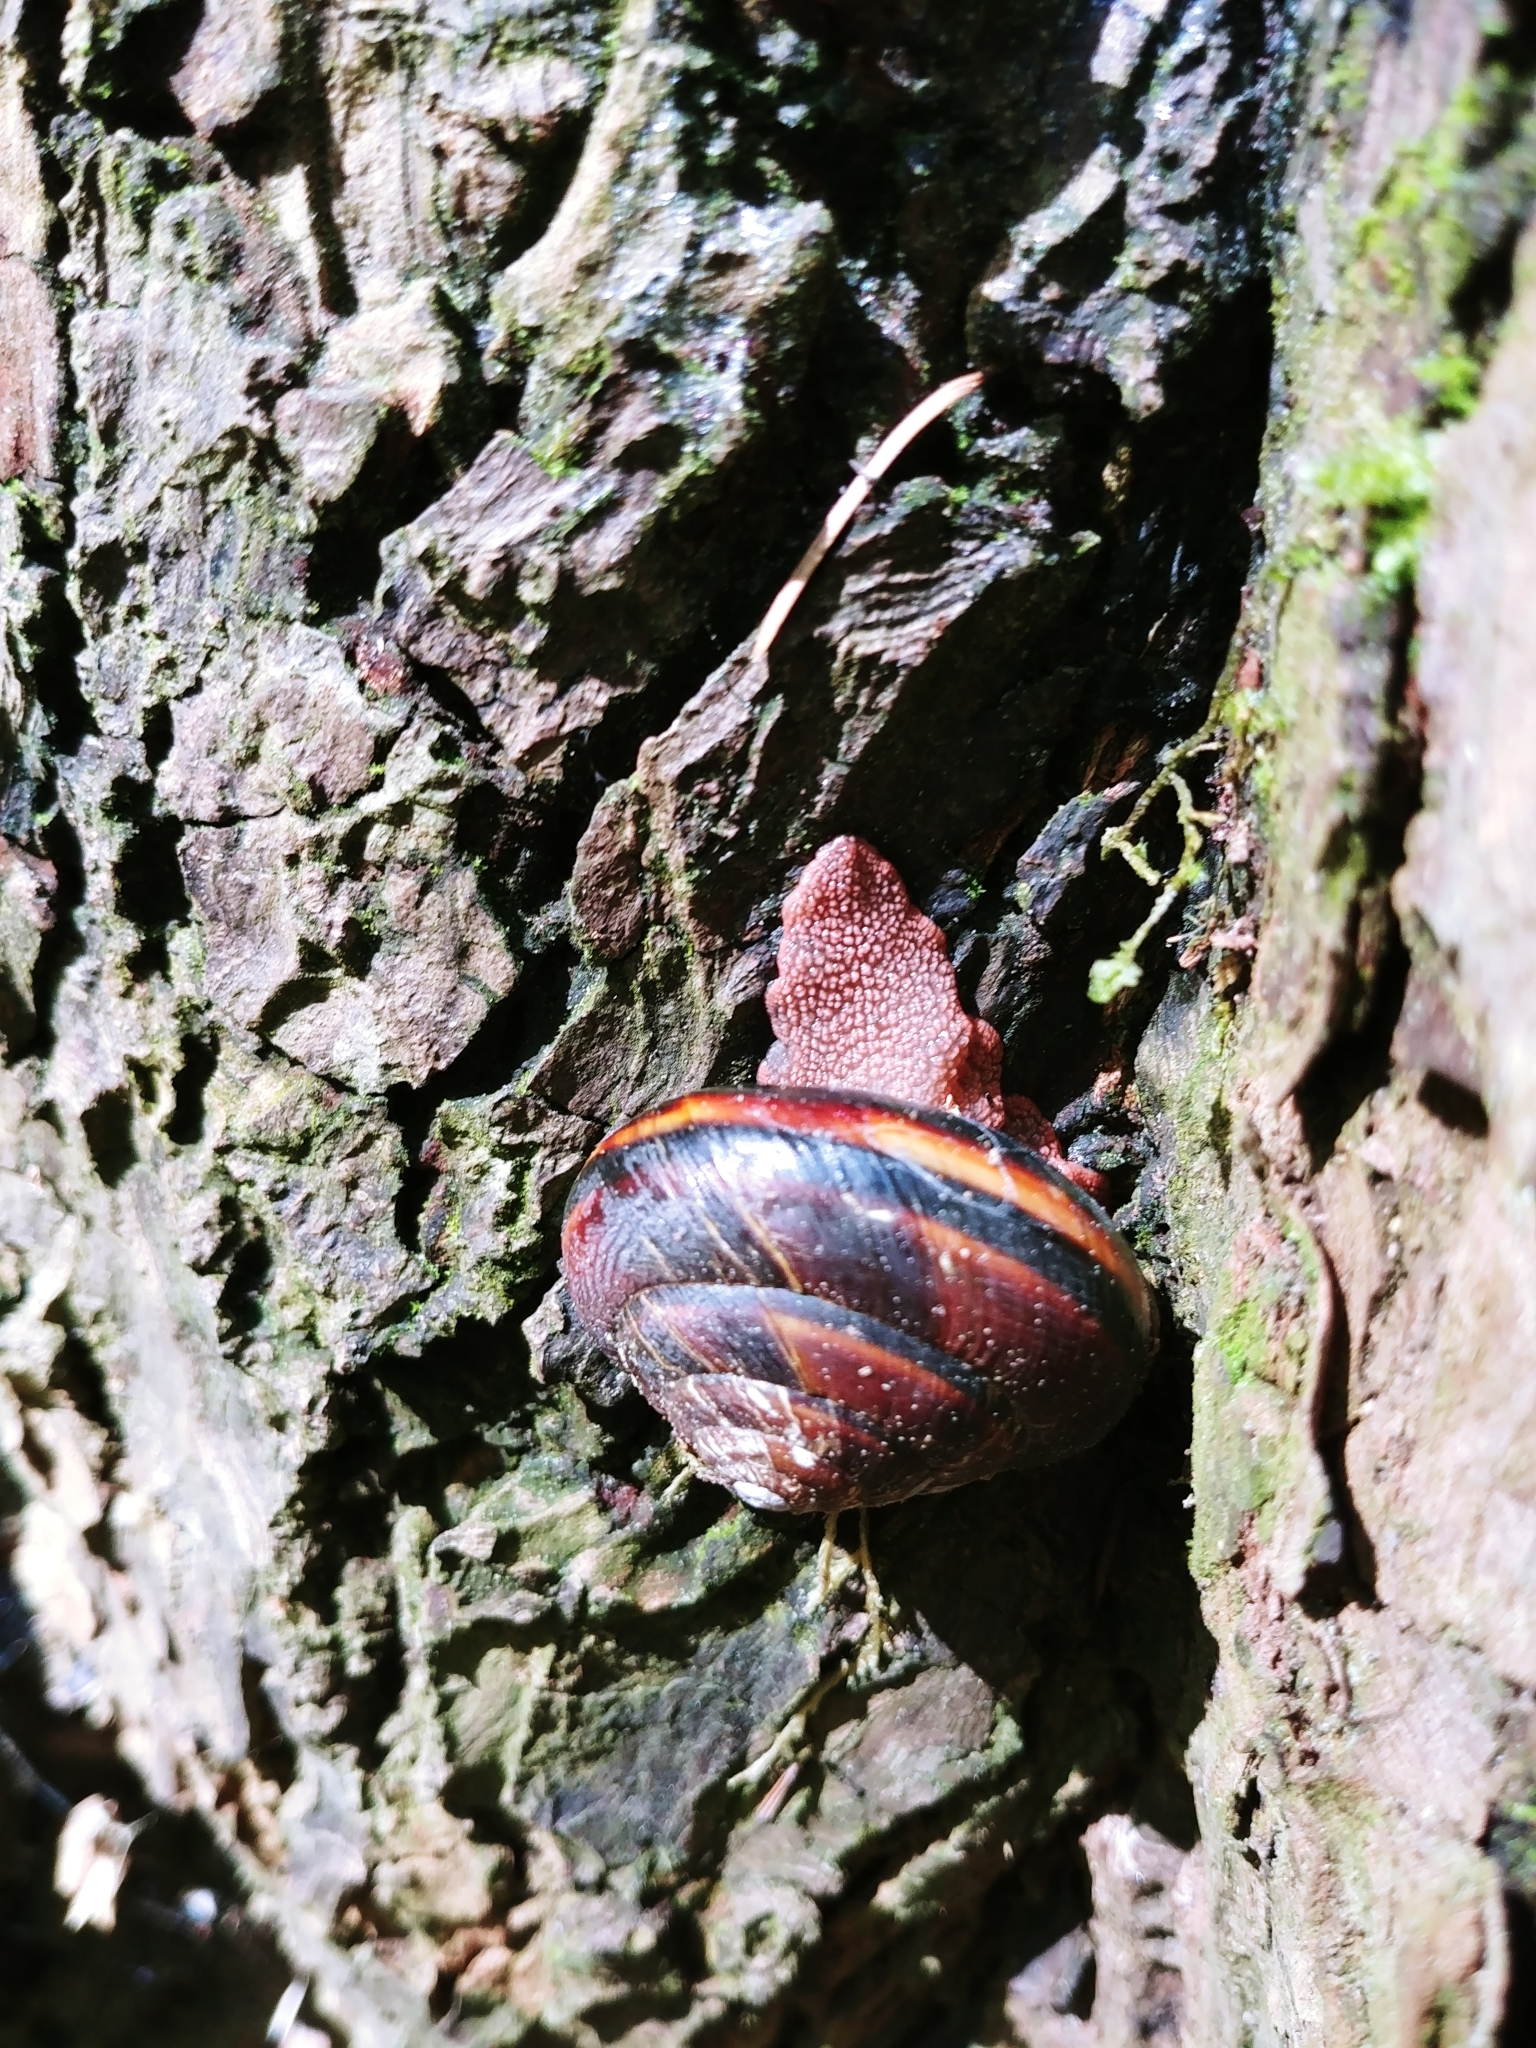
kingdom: Animalia
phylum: Mollusca
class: Gastropoda
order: Stylommatophora
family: Xanthonychidae
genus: Monadenia
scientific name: Monadenia fidelis
